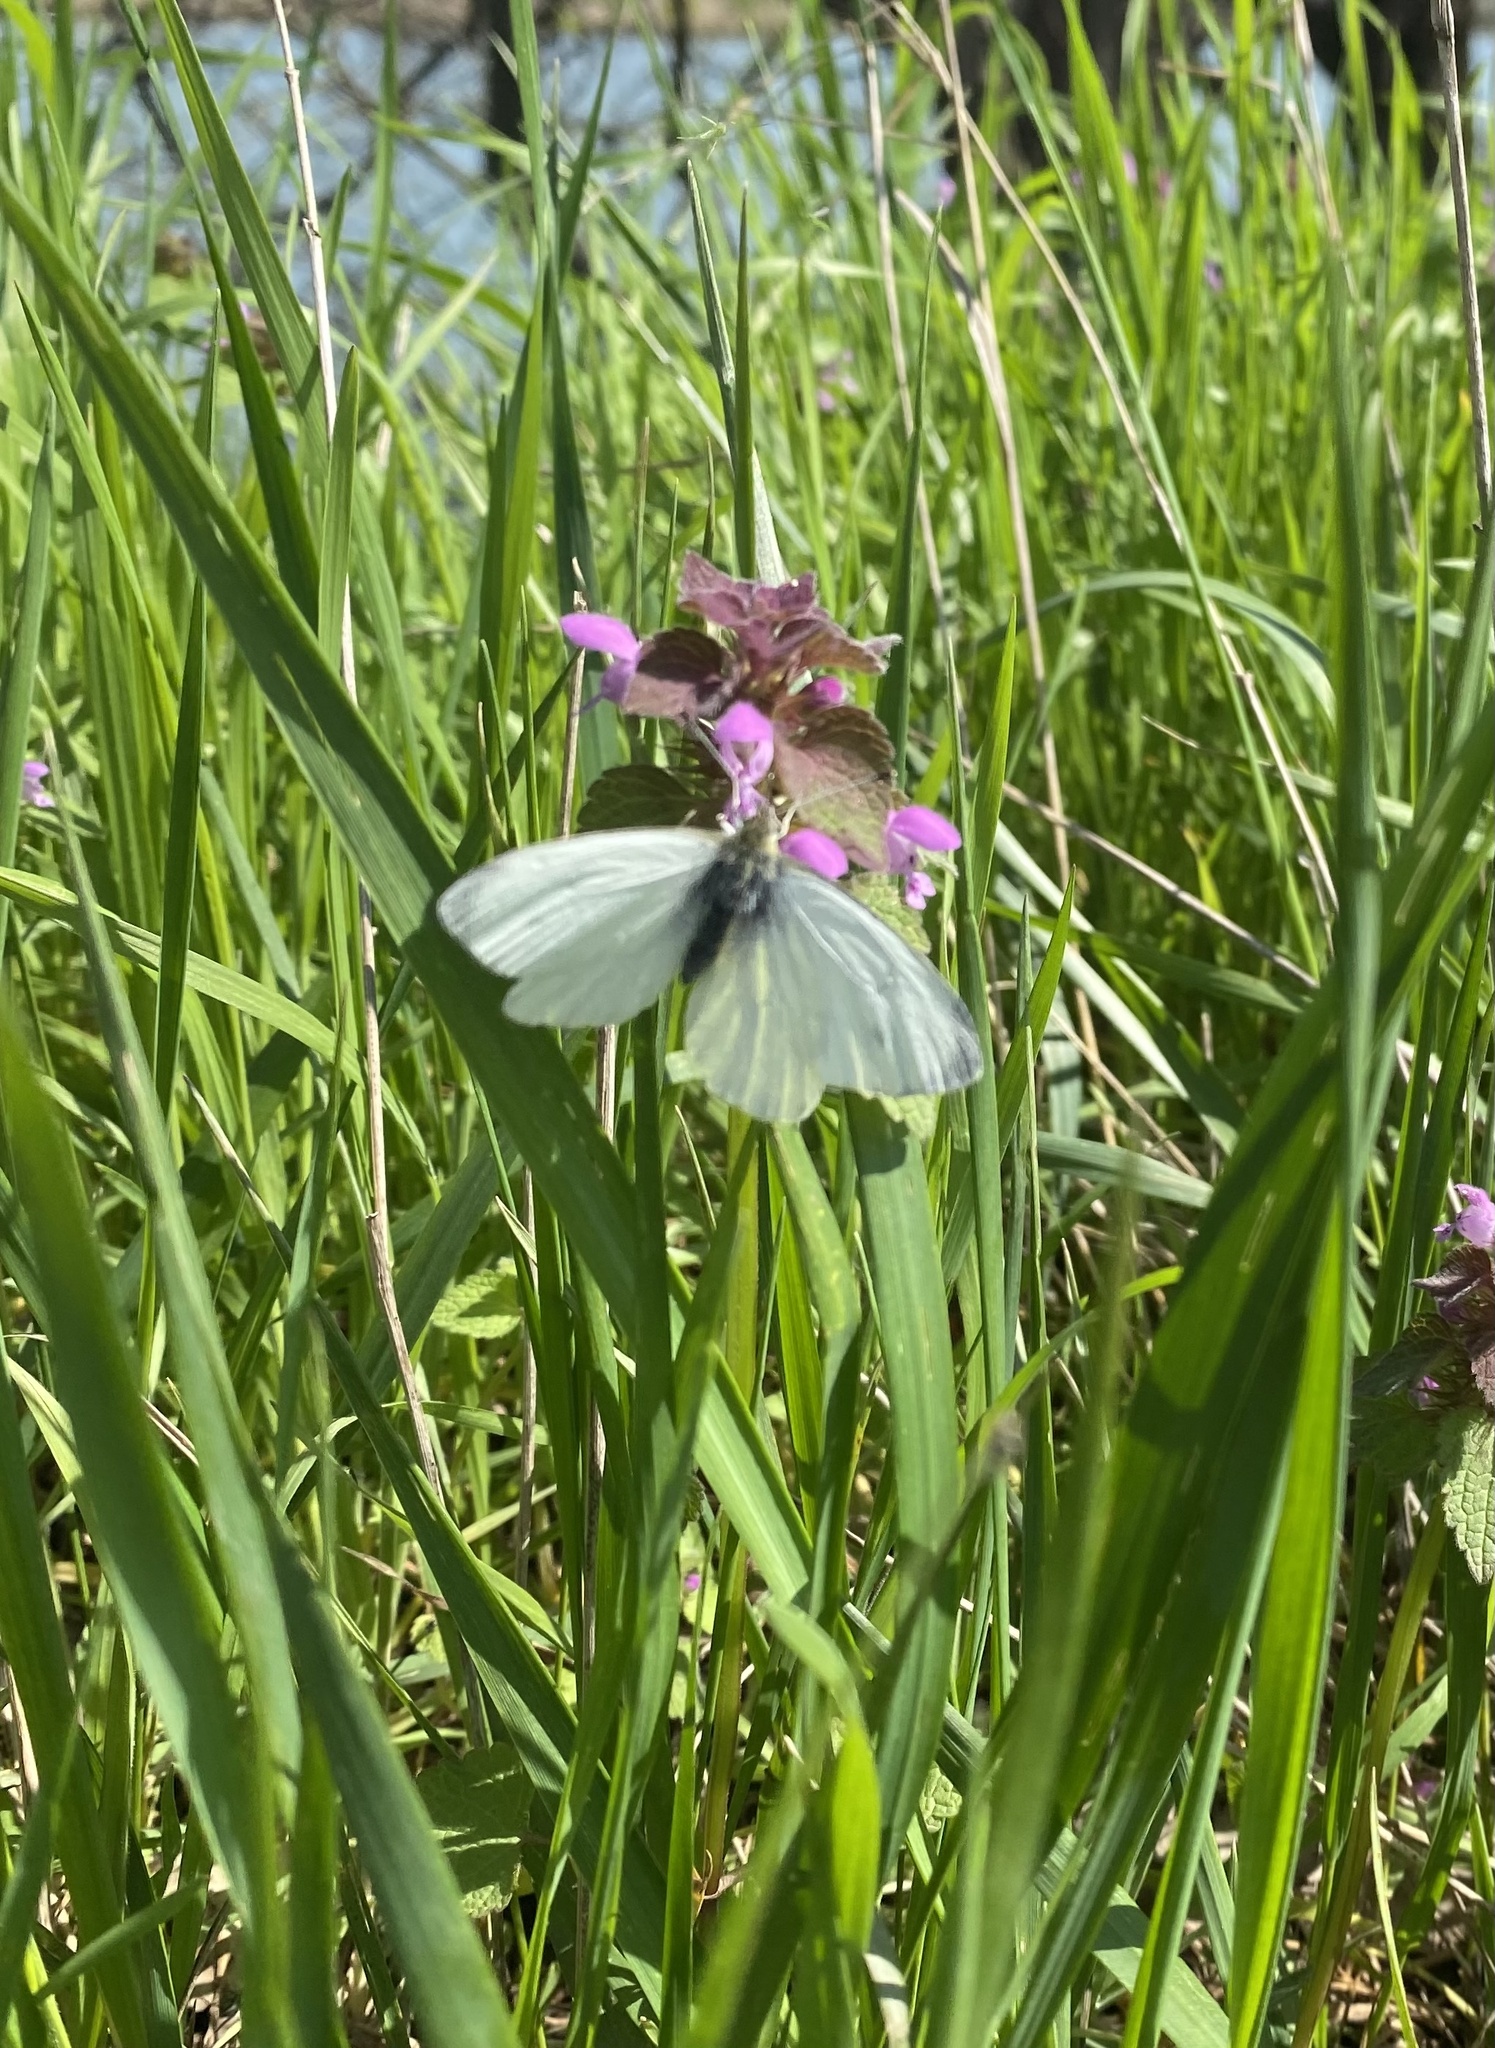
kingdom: Animalia
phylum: Arthropoda
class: Insecta
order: Lepidoptera
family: Pieridae
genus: Pieris
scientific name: Pieris napi
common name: Green-veined white
